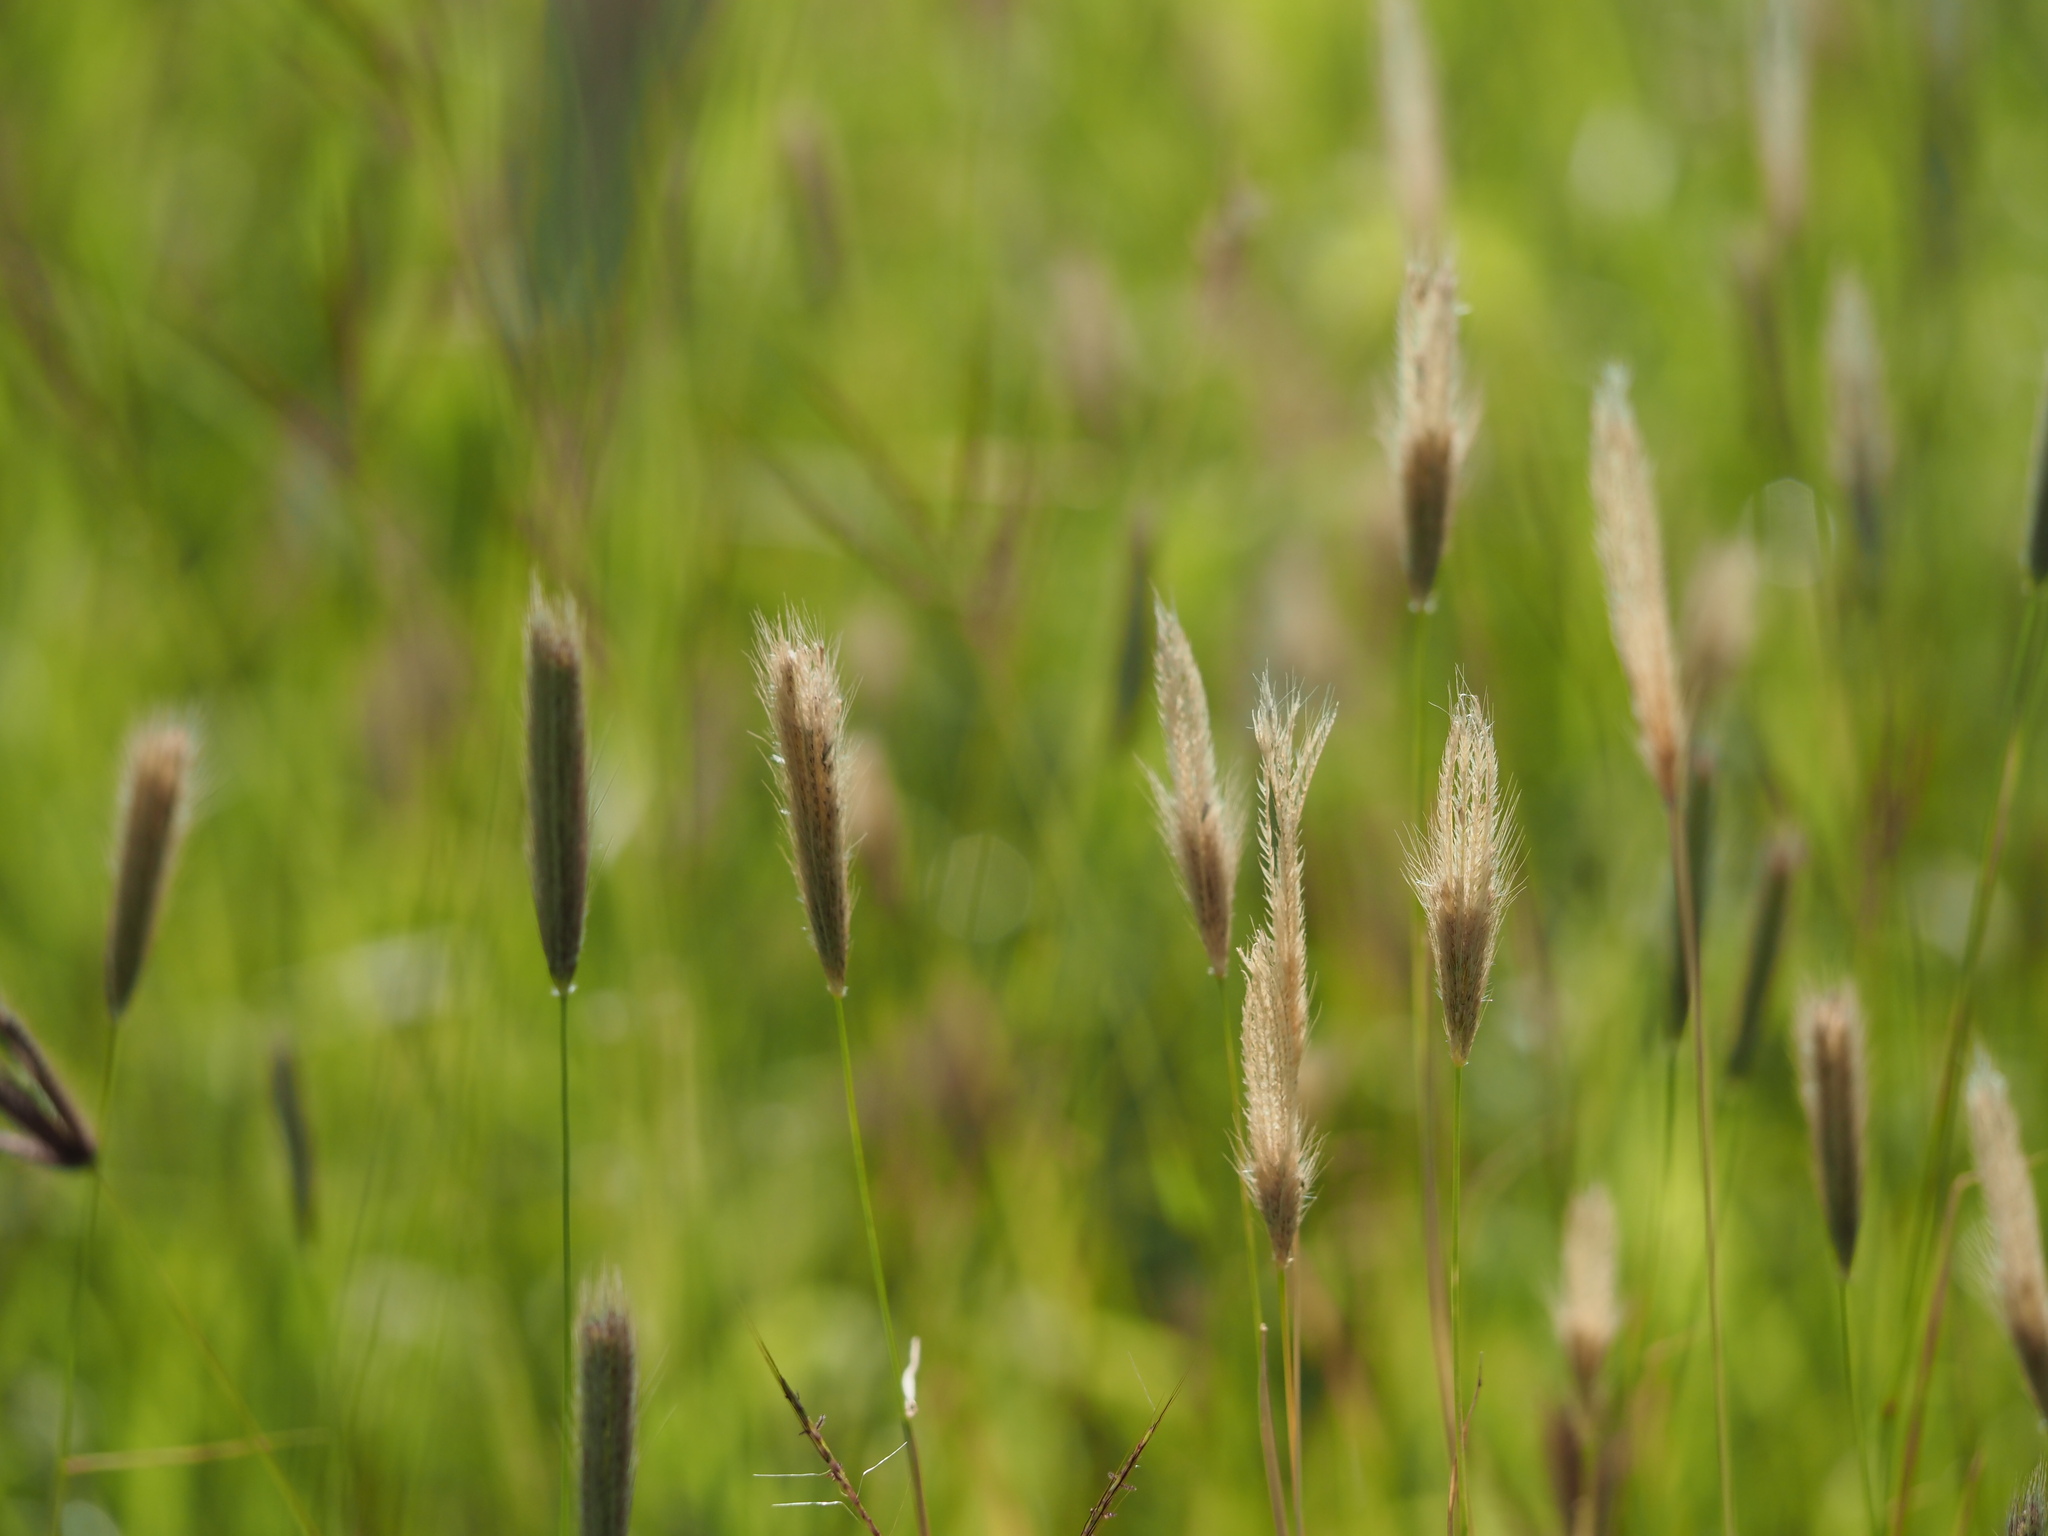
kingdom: Plantae
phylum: Tracheophyta
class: Liliopsida
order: Poales
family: Poaceae
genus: Chloris
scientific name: Chloris virgata
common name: Feathery rhodes-grass
